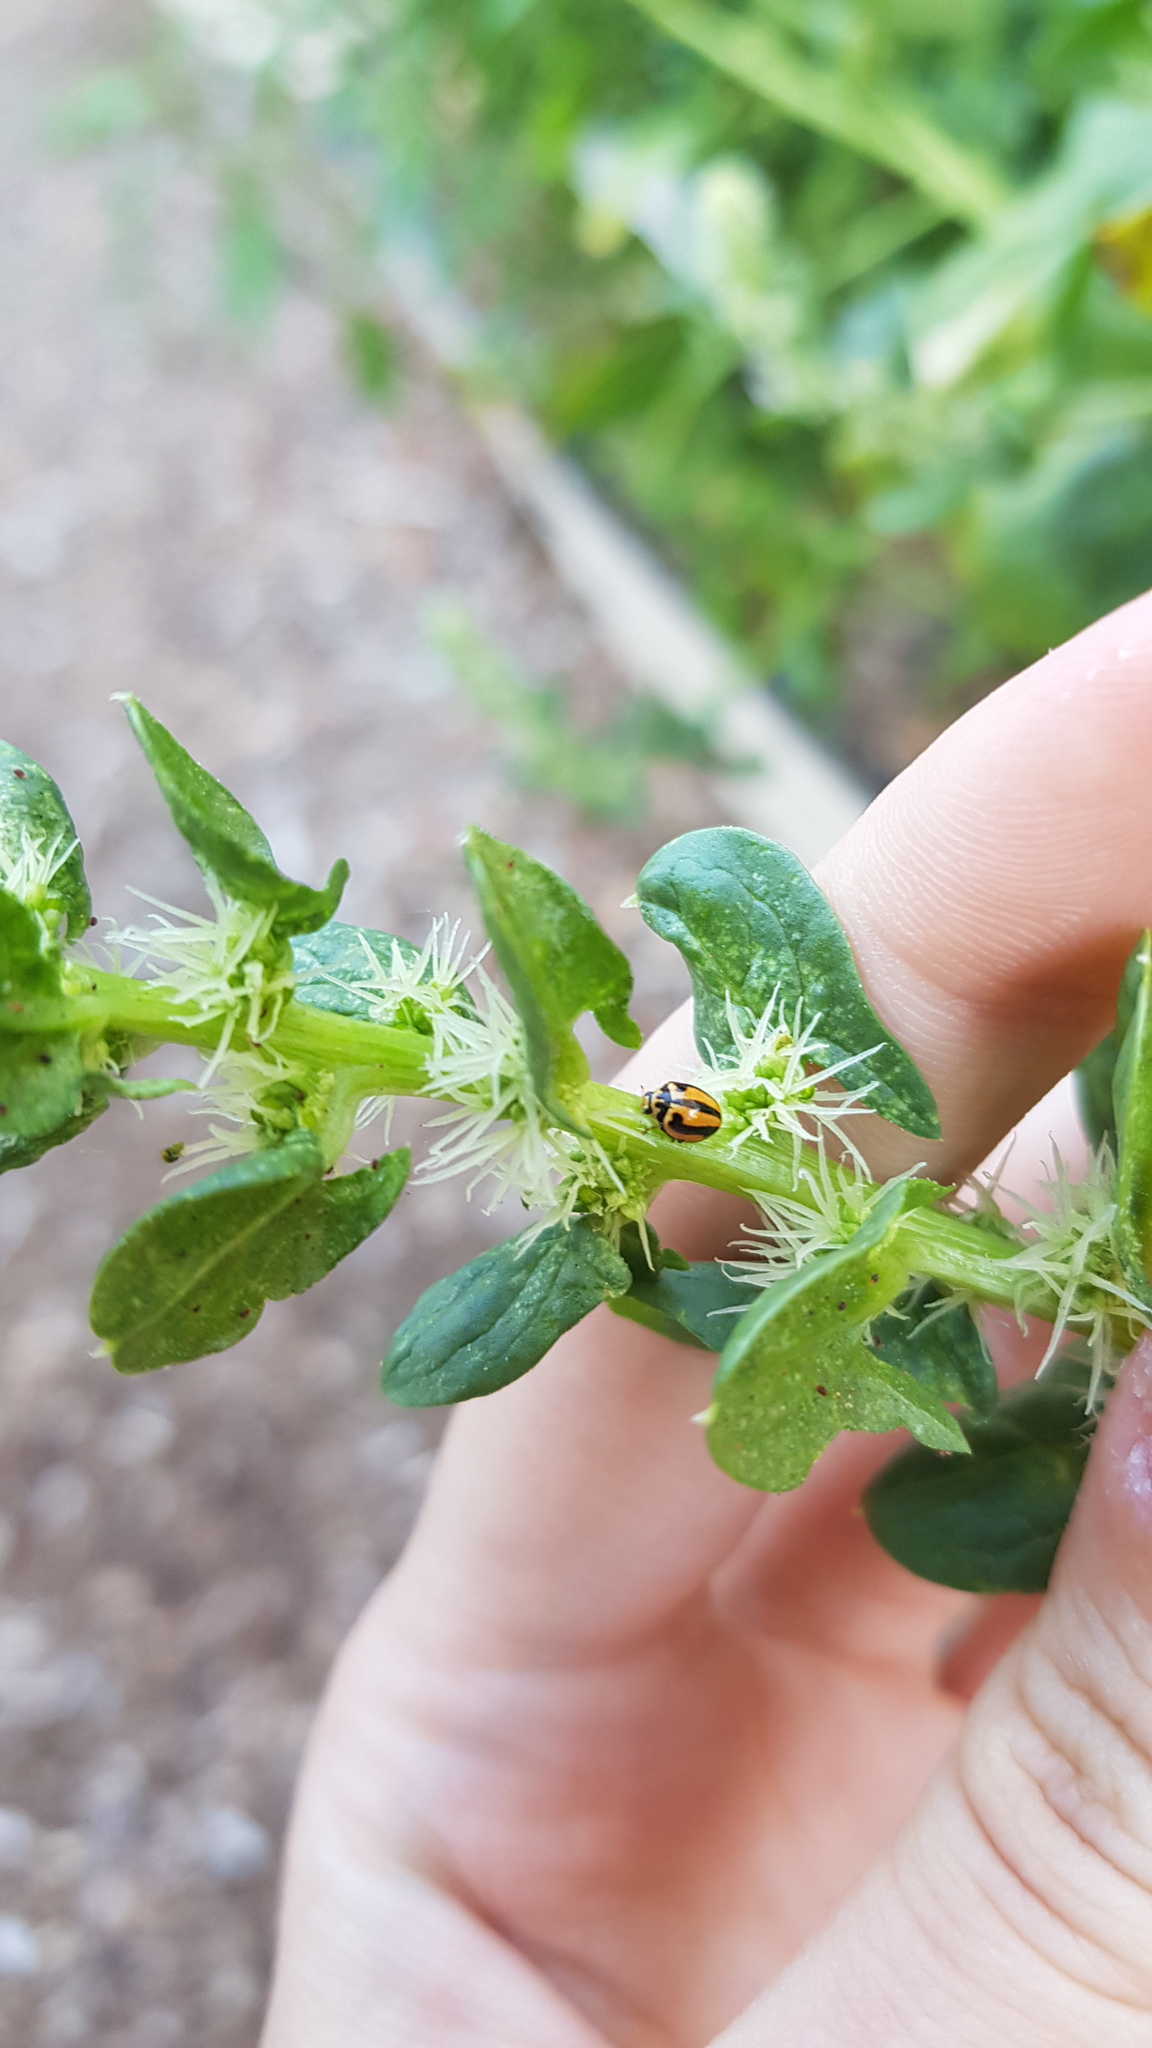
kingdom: Animalia
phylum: Arthropoda
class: Insecta
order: Coleoptera
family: Coccinellidae
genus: Micraspis
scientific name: Micraspis frenata
